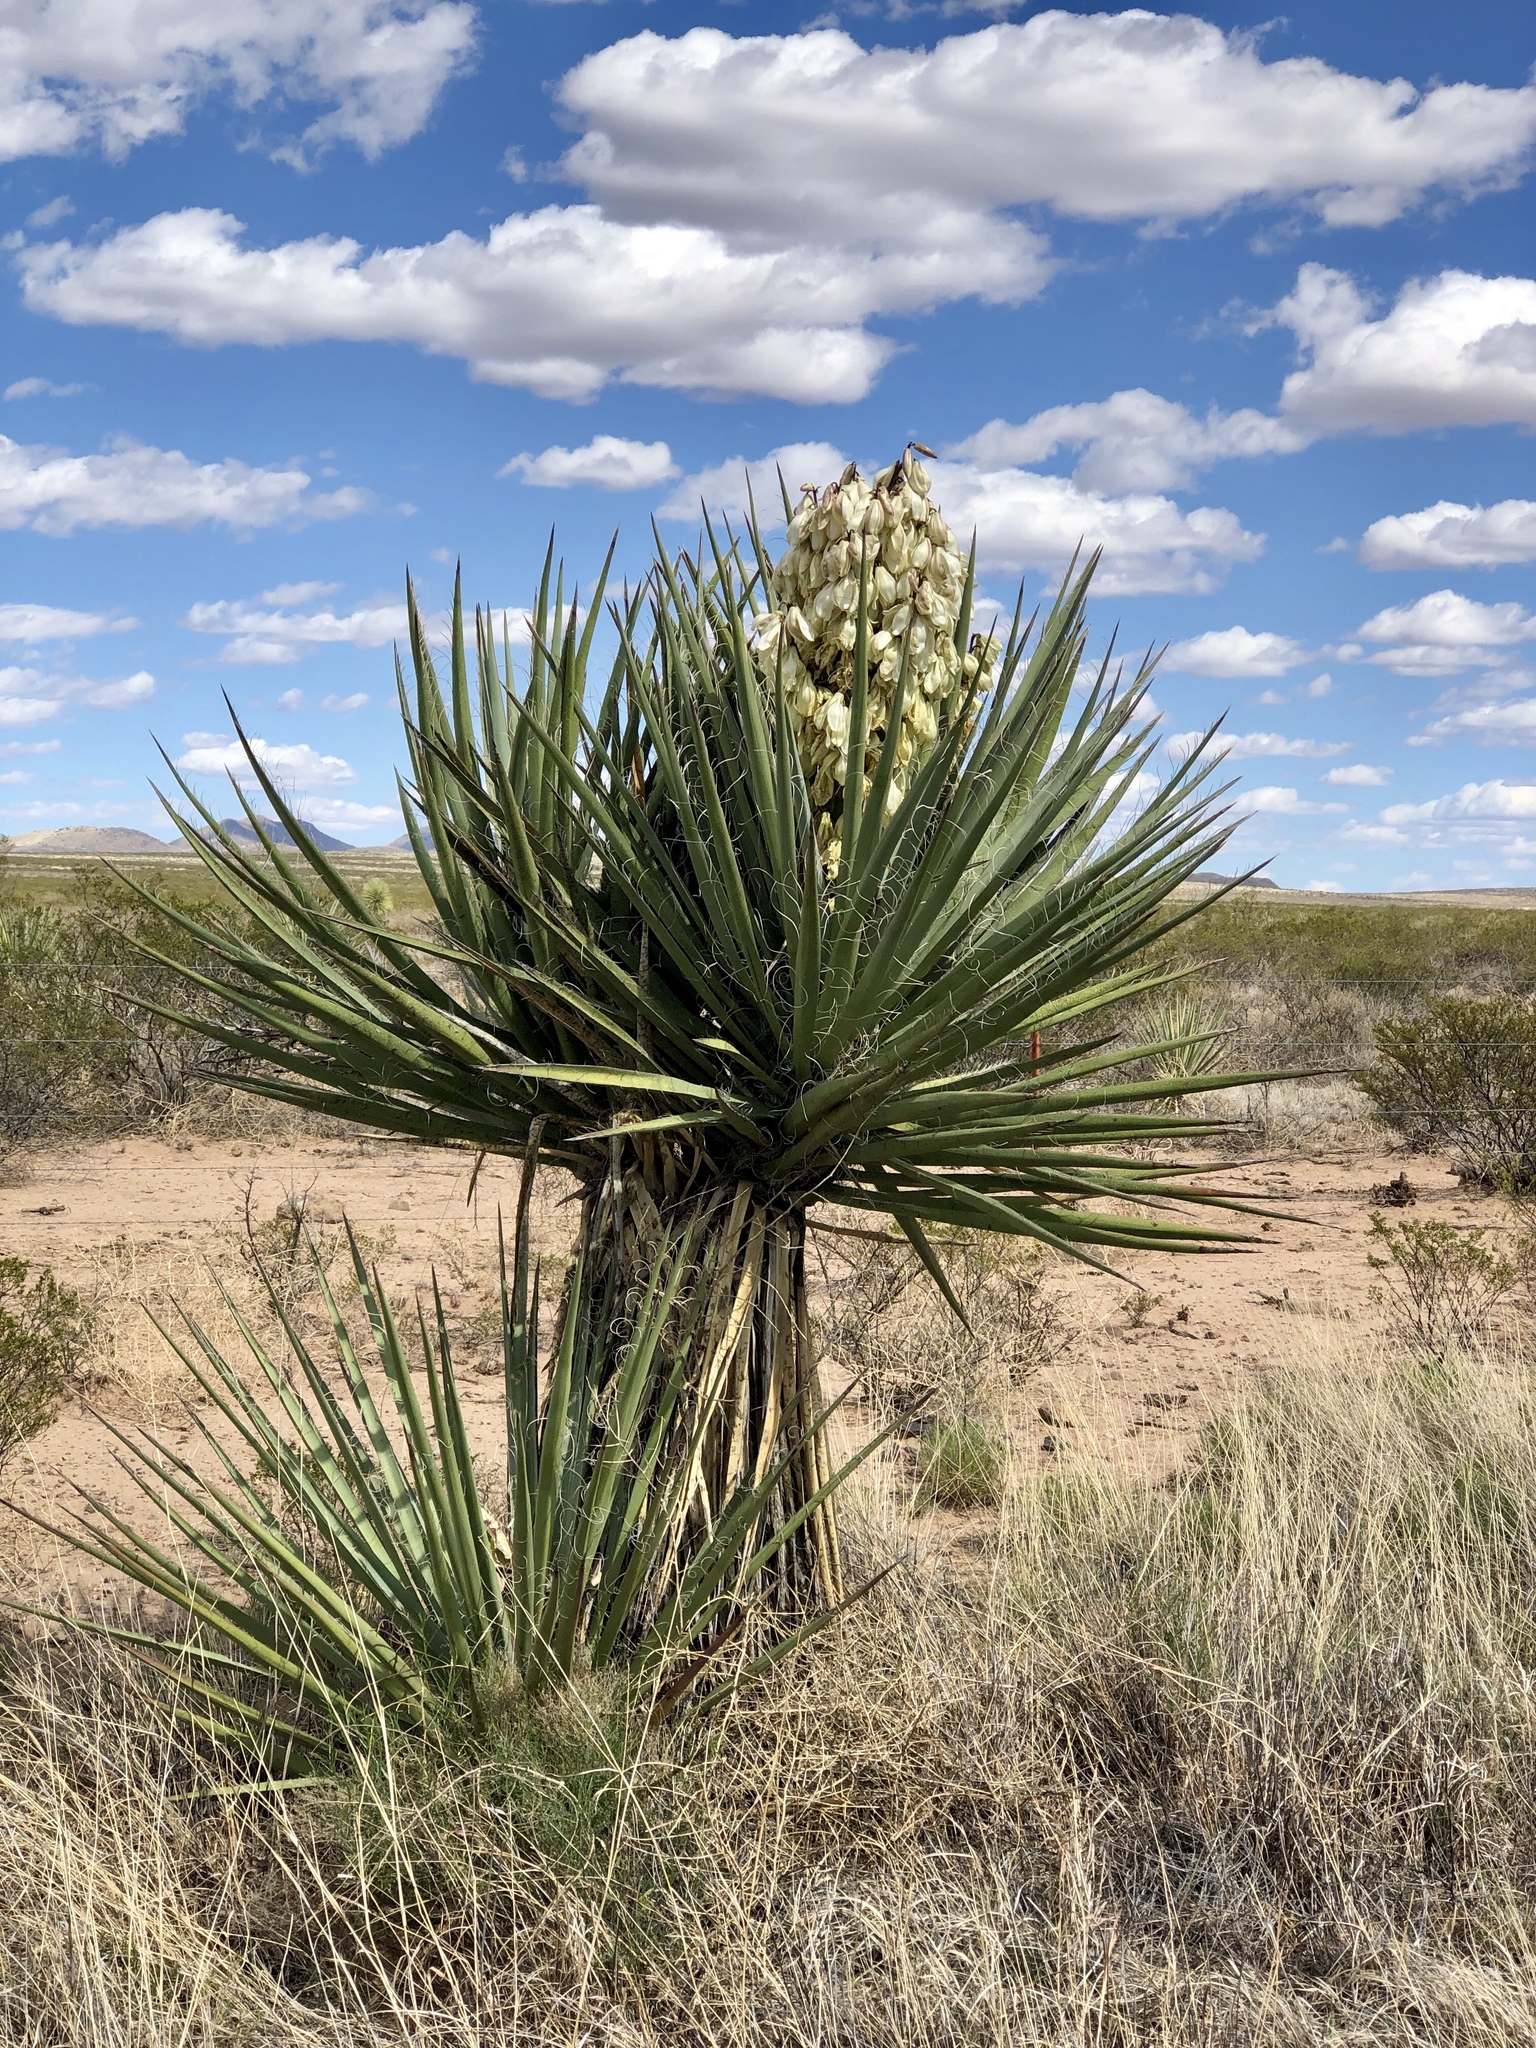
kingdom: Plantae
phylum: Tracheophyta
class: Liliopsida
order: Asparagales
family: Asparagaceae
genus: Yucca
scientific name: Yucca baccata
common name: Banana yucca
